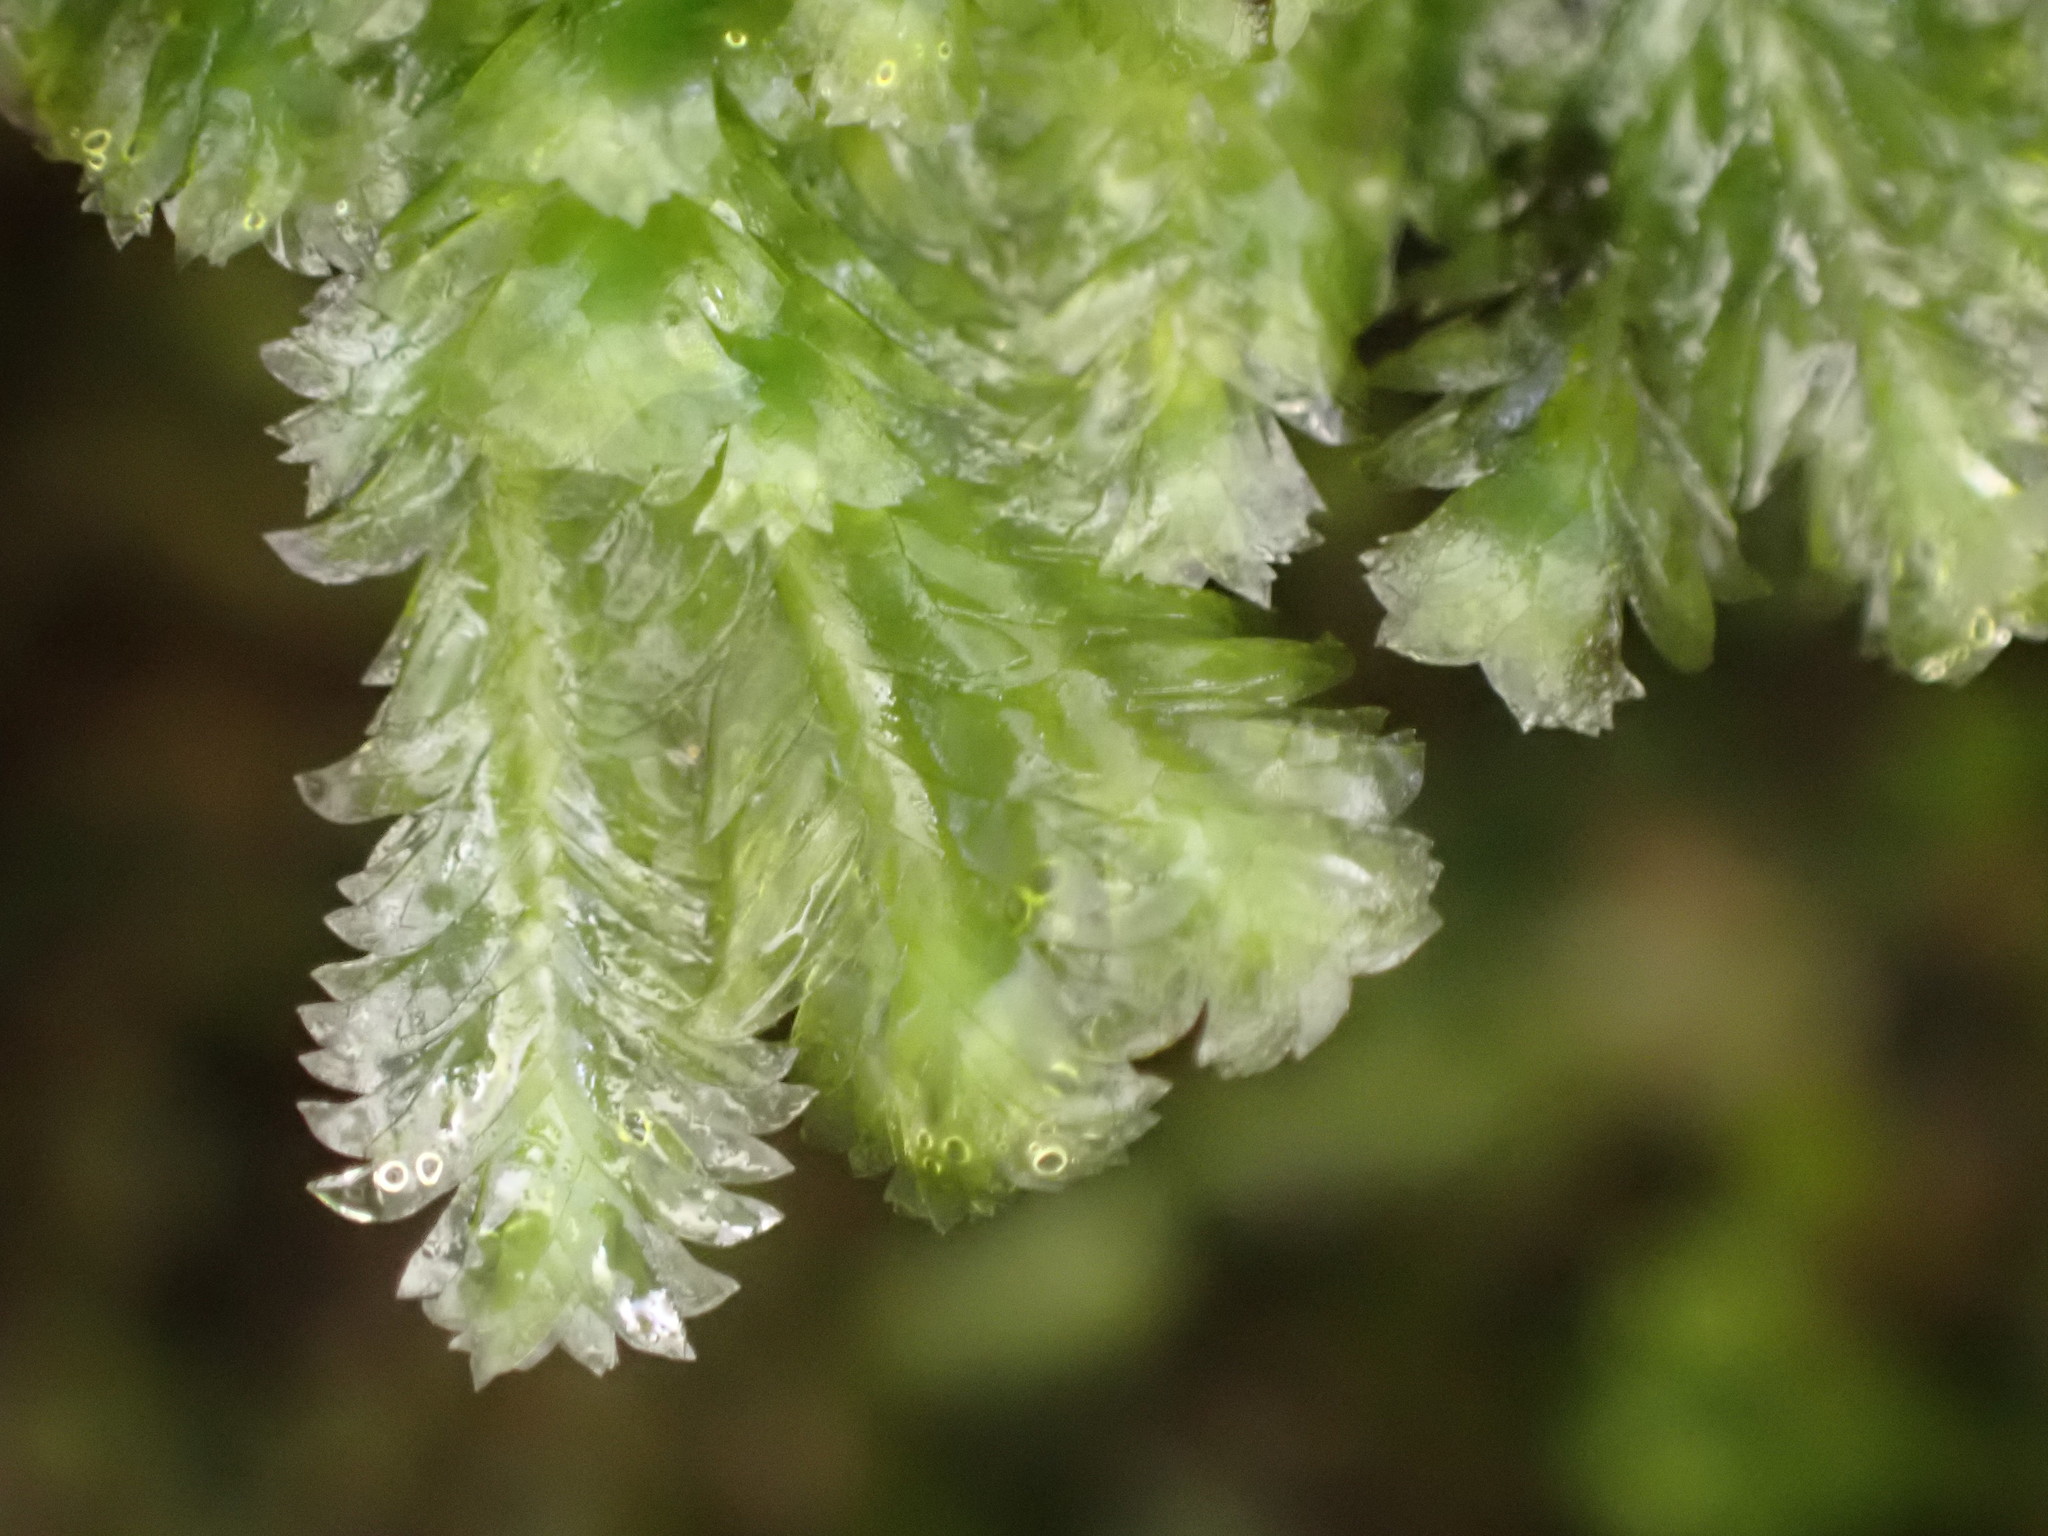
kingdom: Plantae
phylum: Bryophyta
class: Bryopsida
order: Hypnales
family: Lembophyllaceae
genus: Margrethypnum
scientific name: Margrethypnum falcifolium
